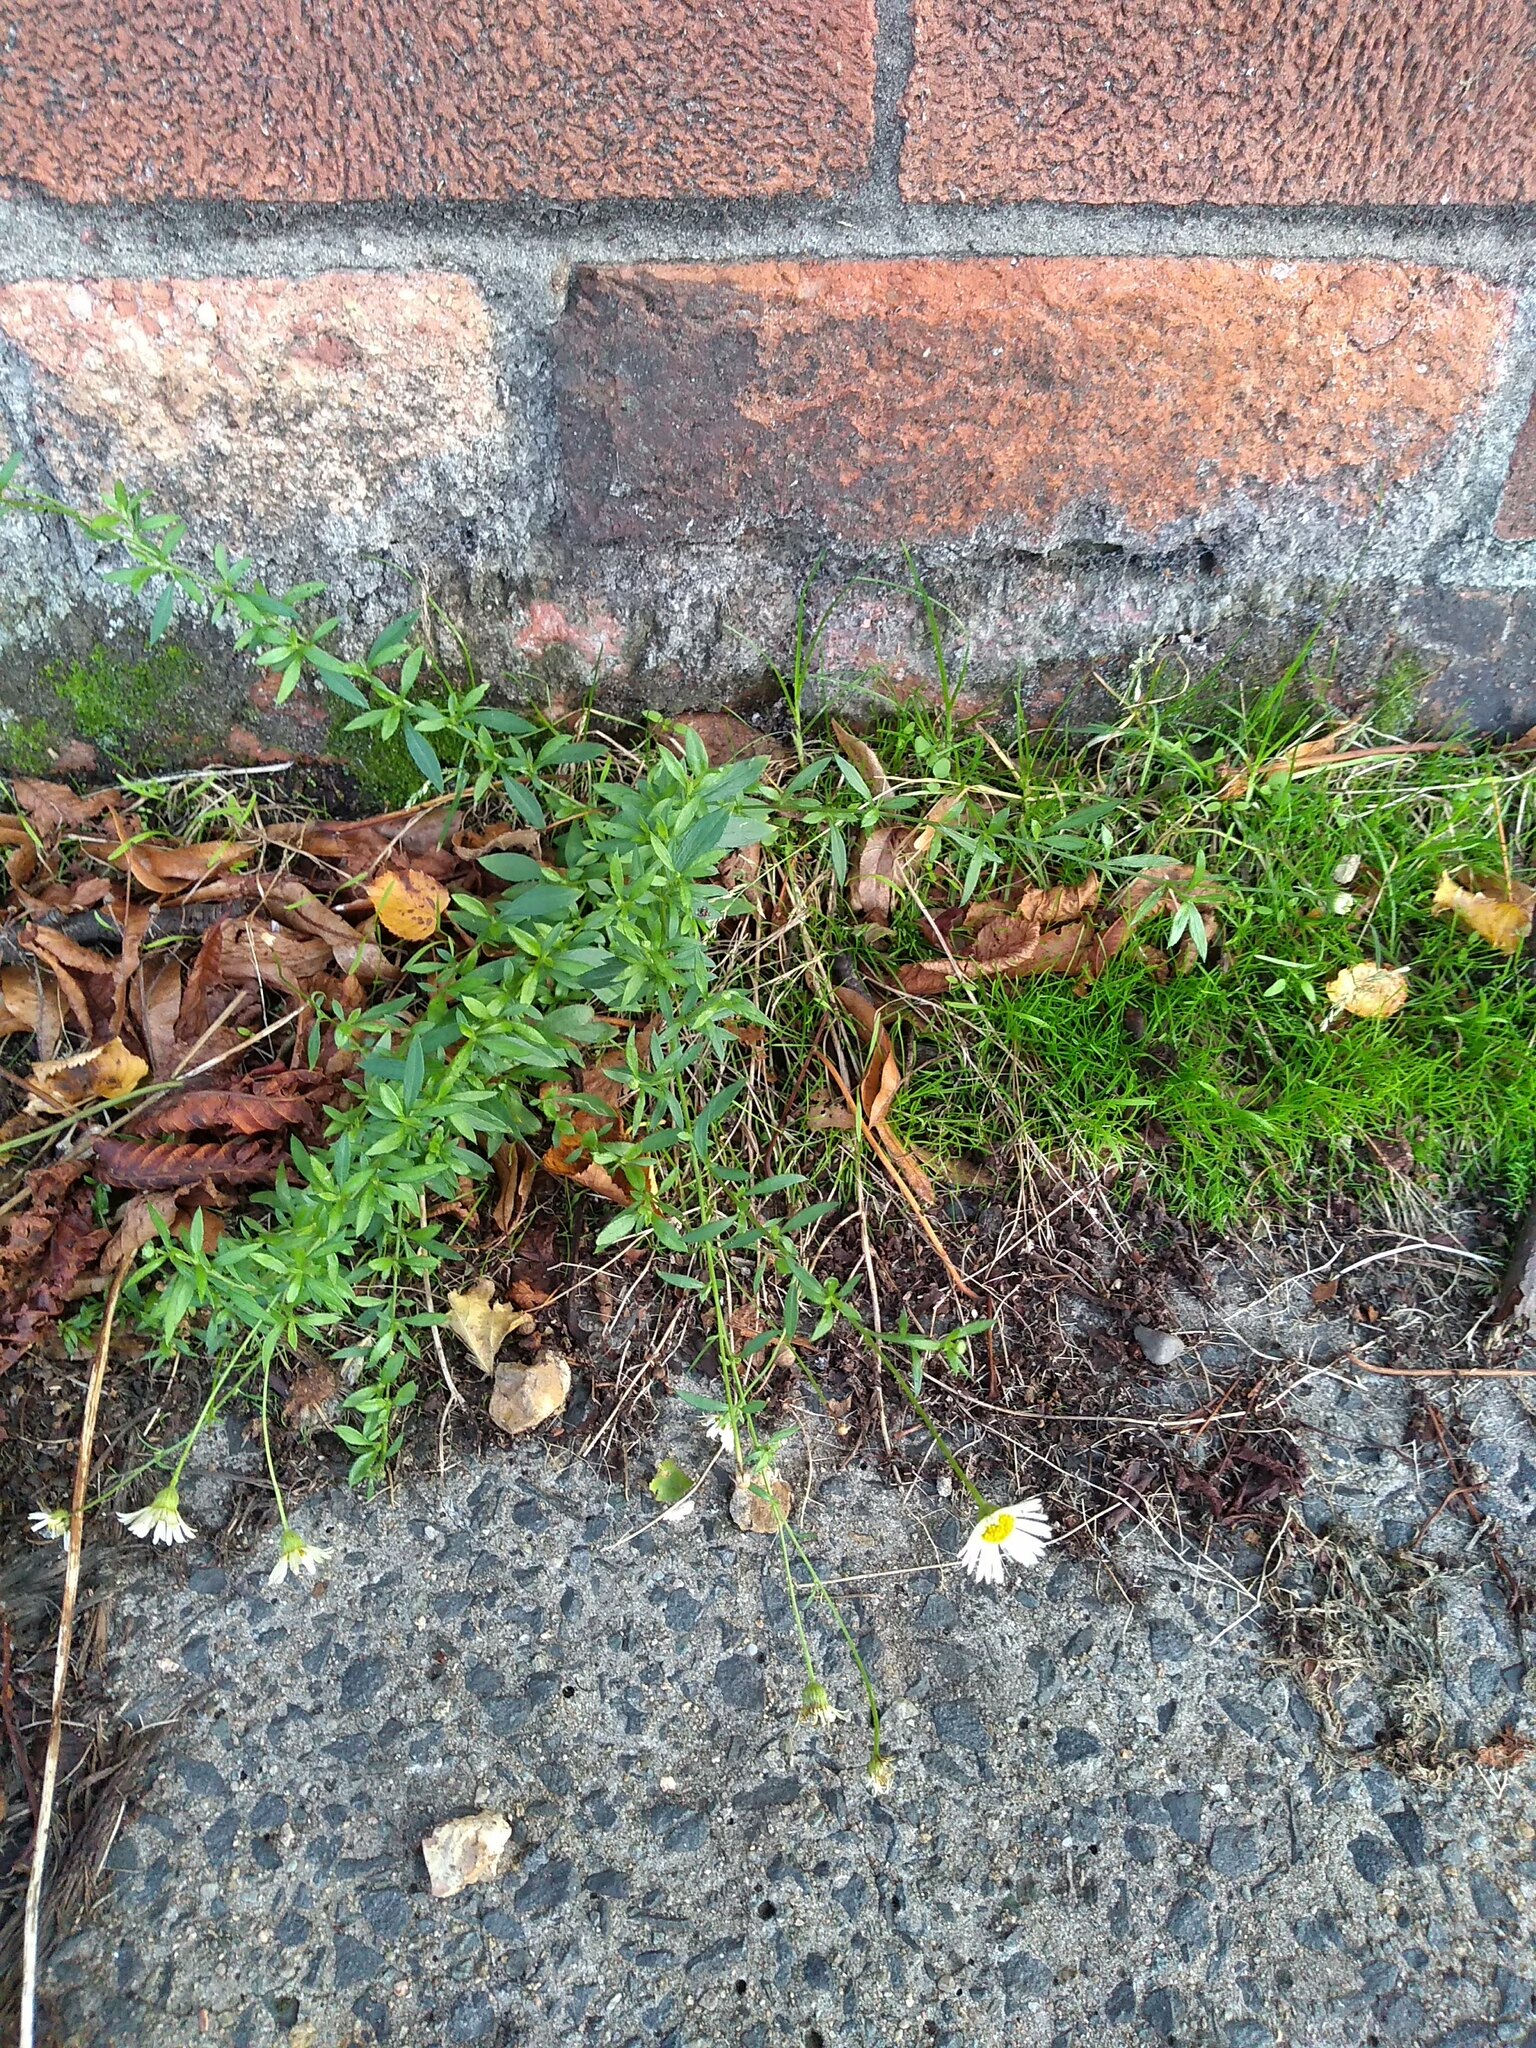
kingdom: Plantae
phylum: Tracheophyta
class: Magnoliopsida
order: Asterales
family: Asteraceae
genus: Erigeron
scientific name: Erigeron karvinskianus
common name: Mexican fleabane
